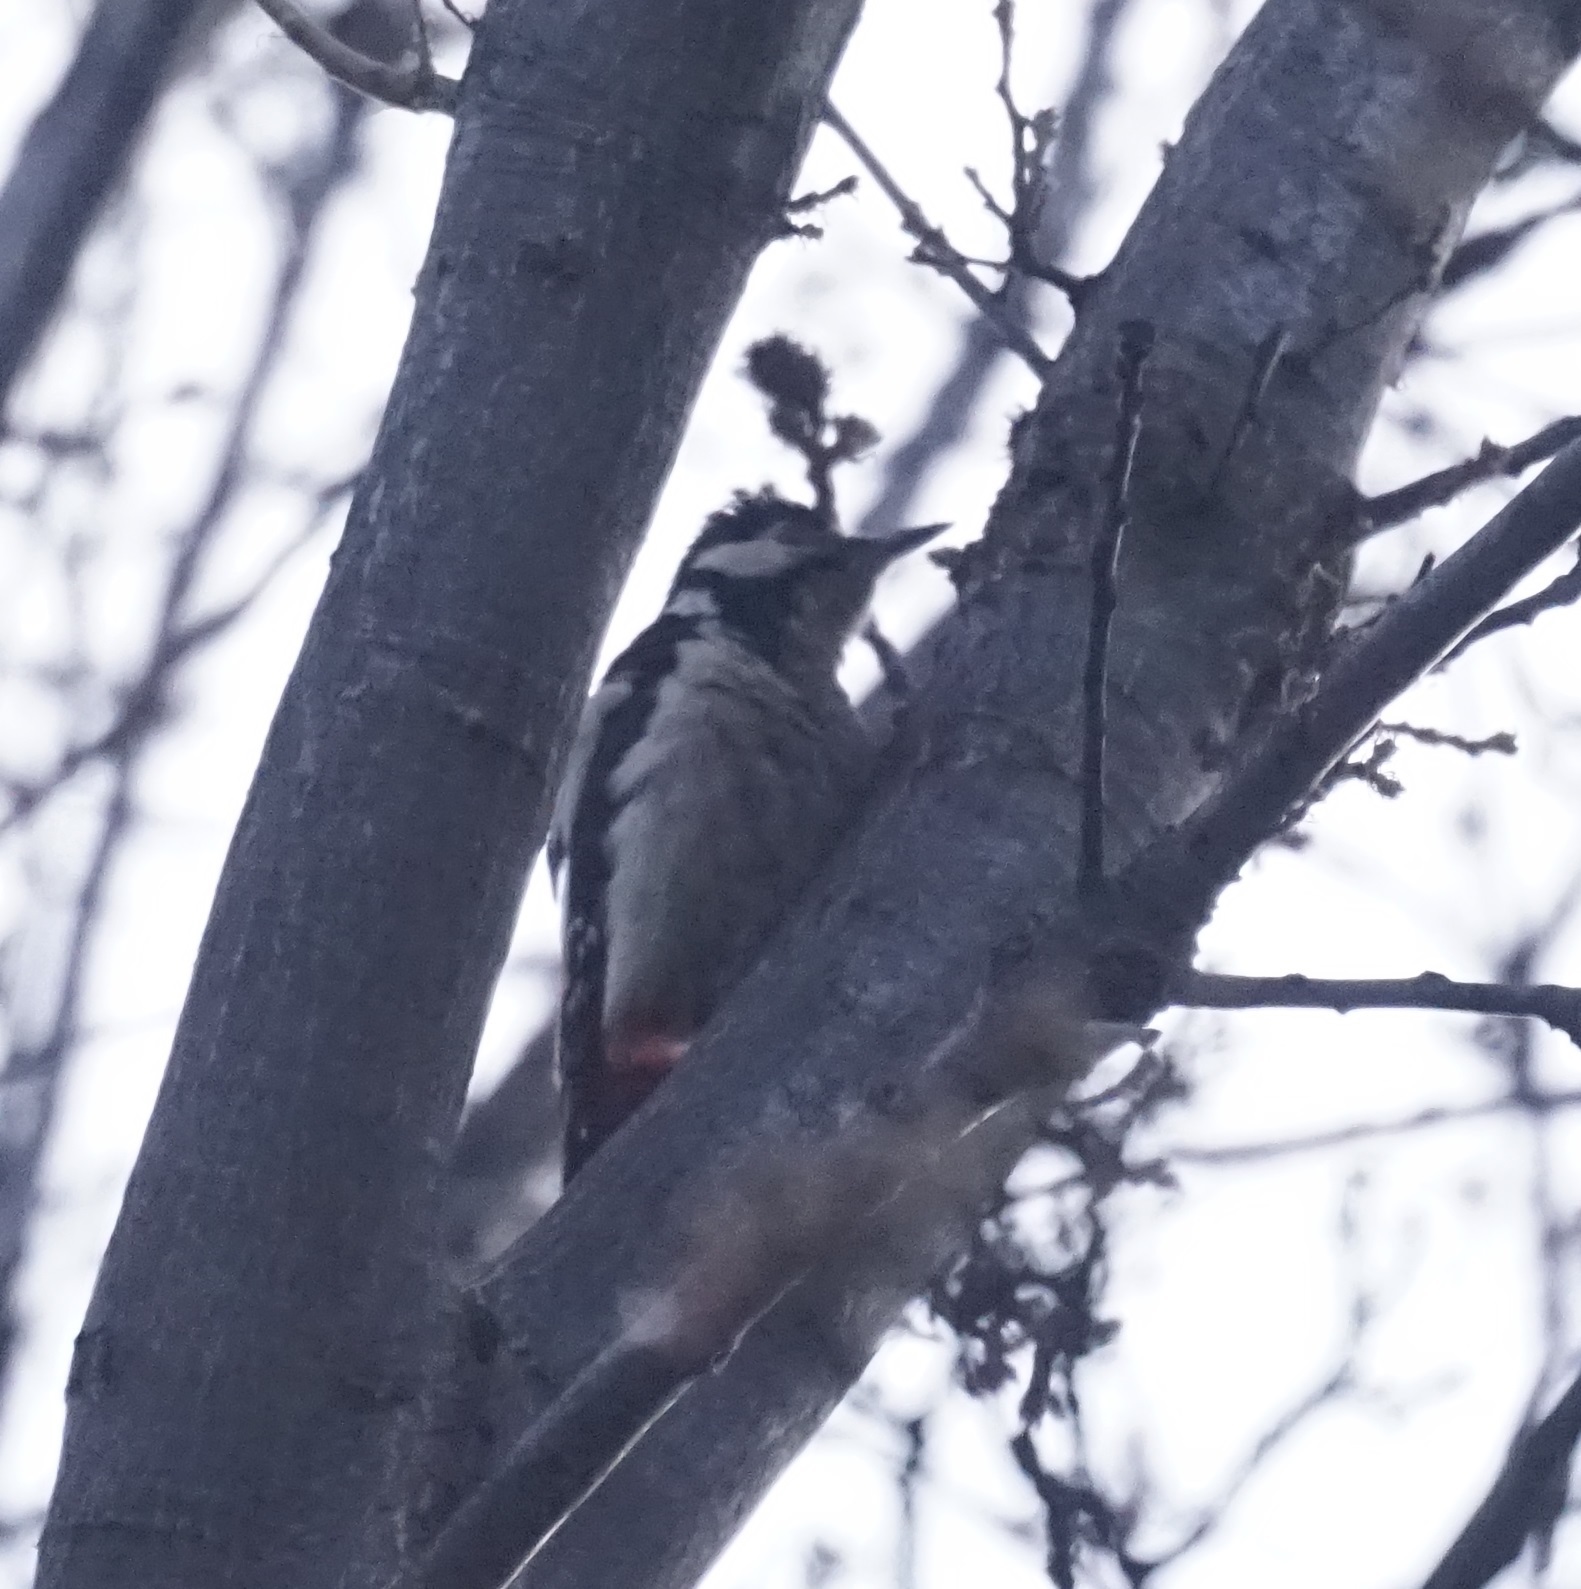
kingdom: Animalia
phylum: Chordata
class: Aves
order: Piciformes
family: Picidae
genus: Dendrocopos
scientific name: Dendrocopos major
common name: Great spotted woodpecker
